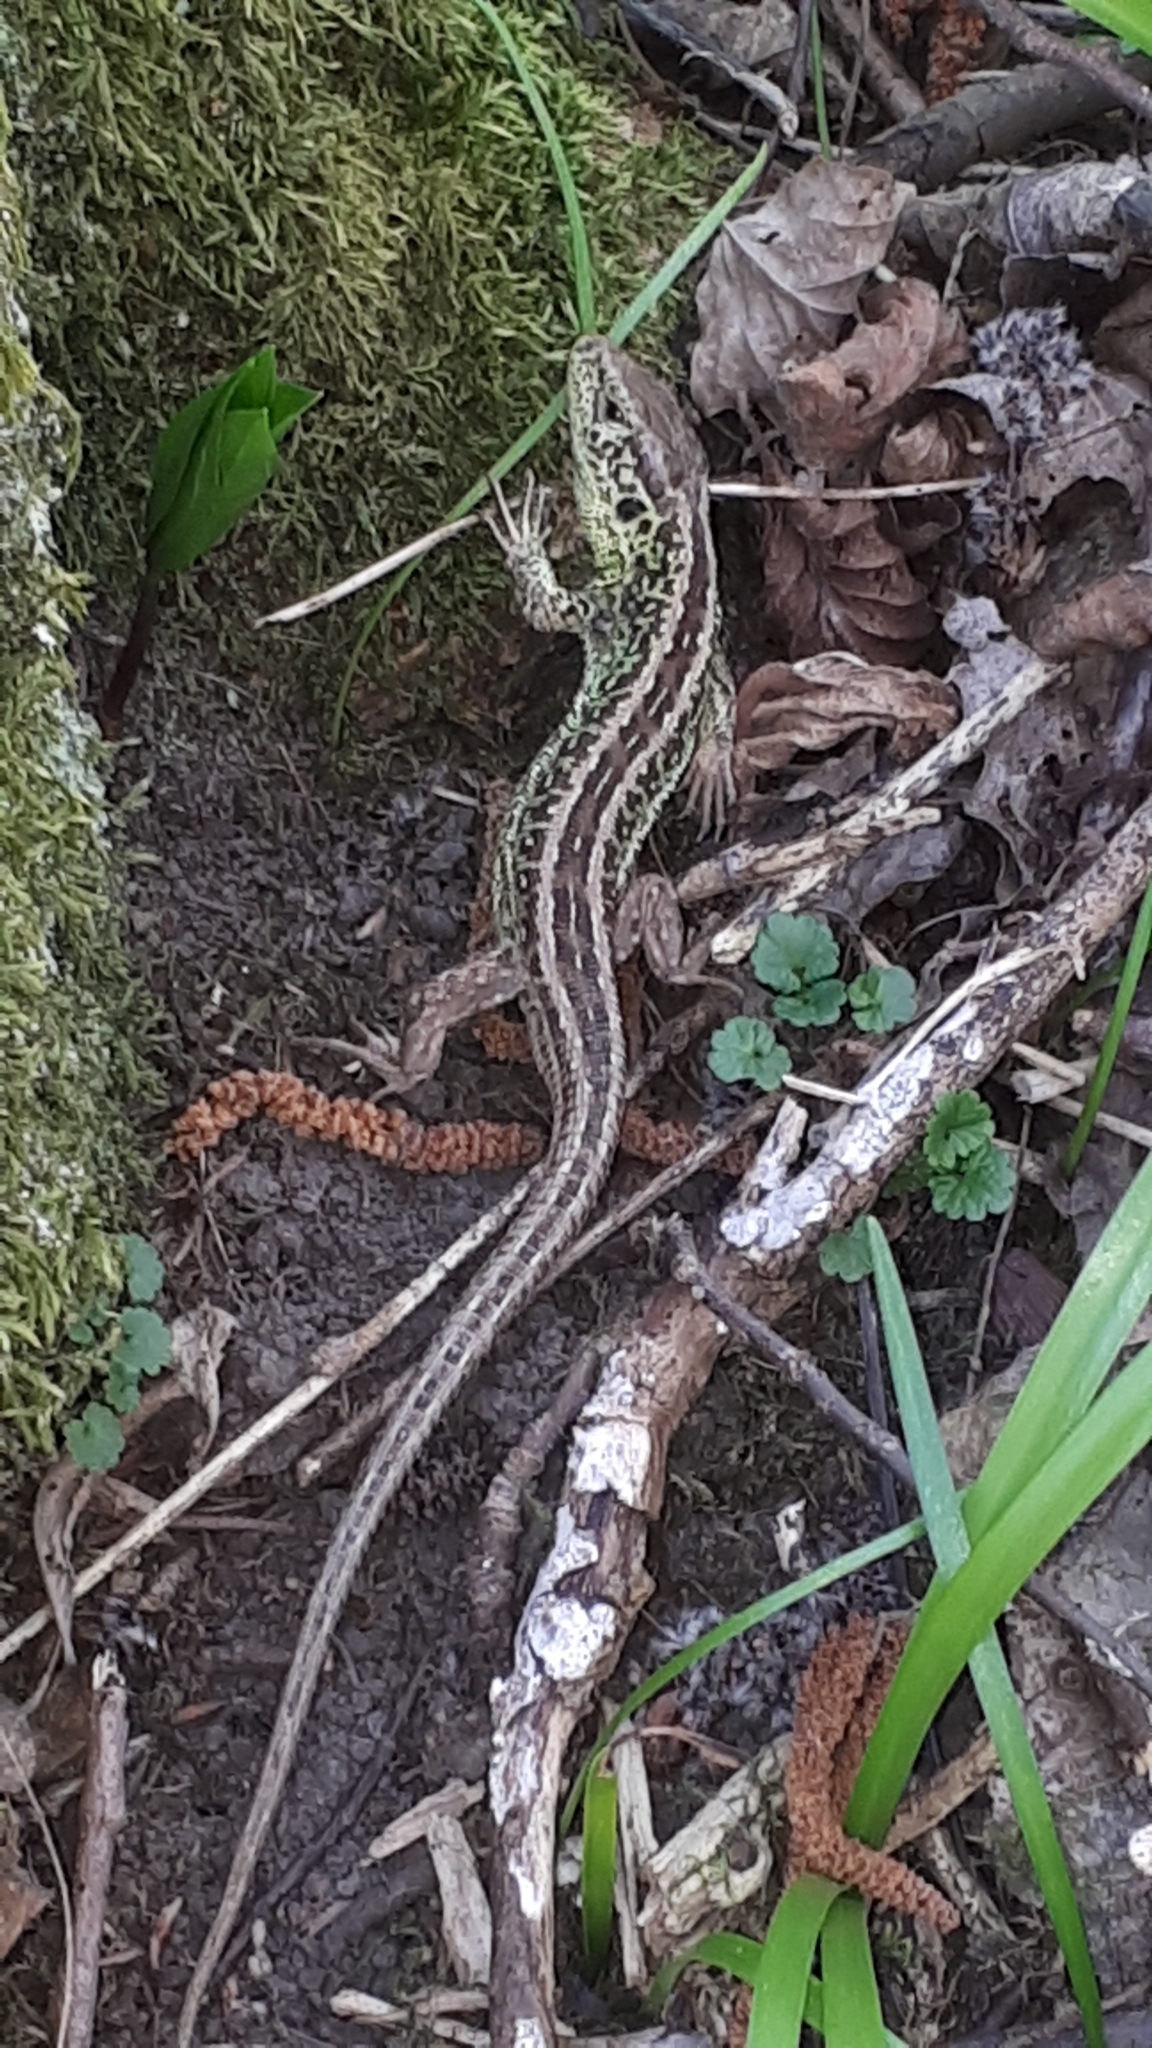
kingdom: Animalia
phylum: Chordata
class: Squamata
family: Lacertidae
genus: Lacerta
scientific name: Lacerta agilis
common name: Sand lizard
